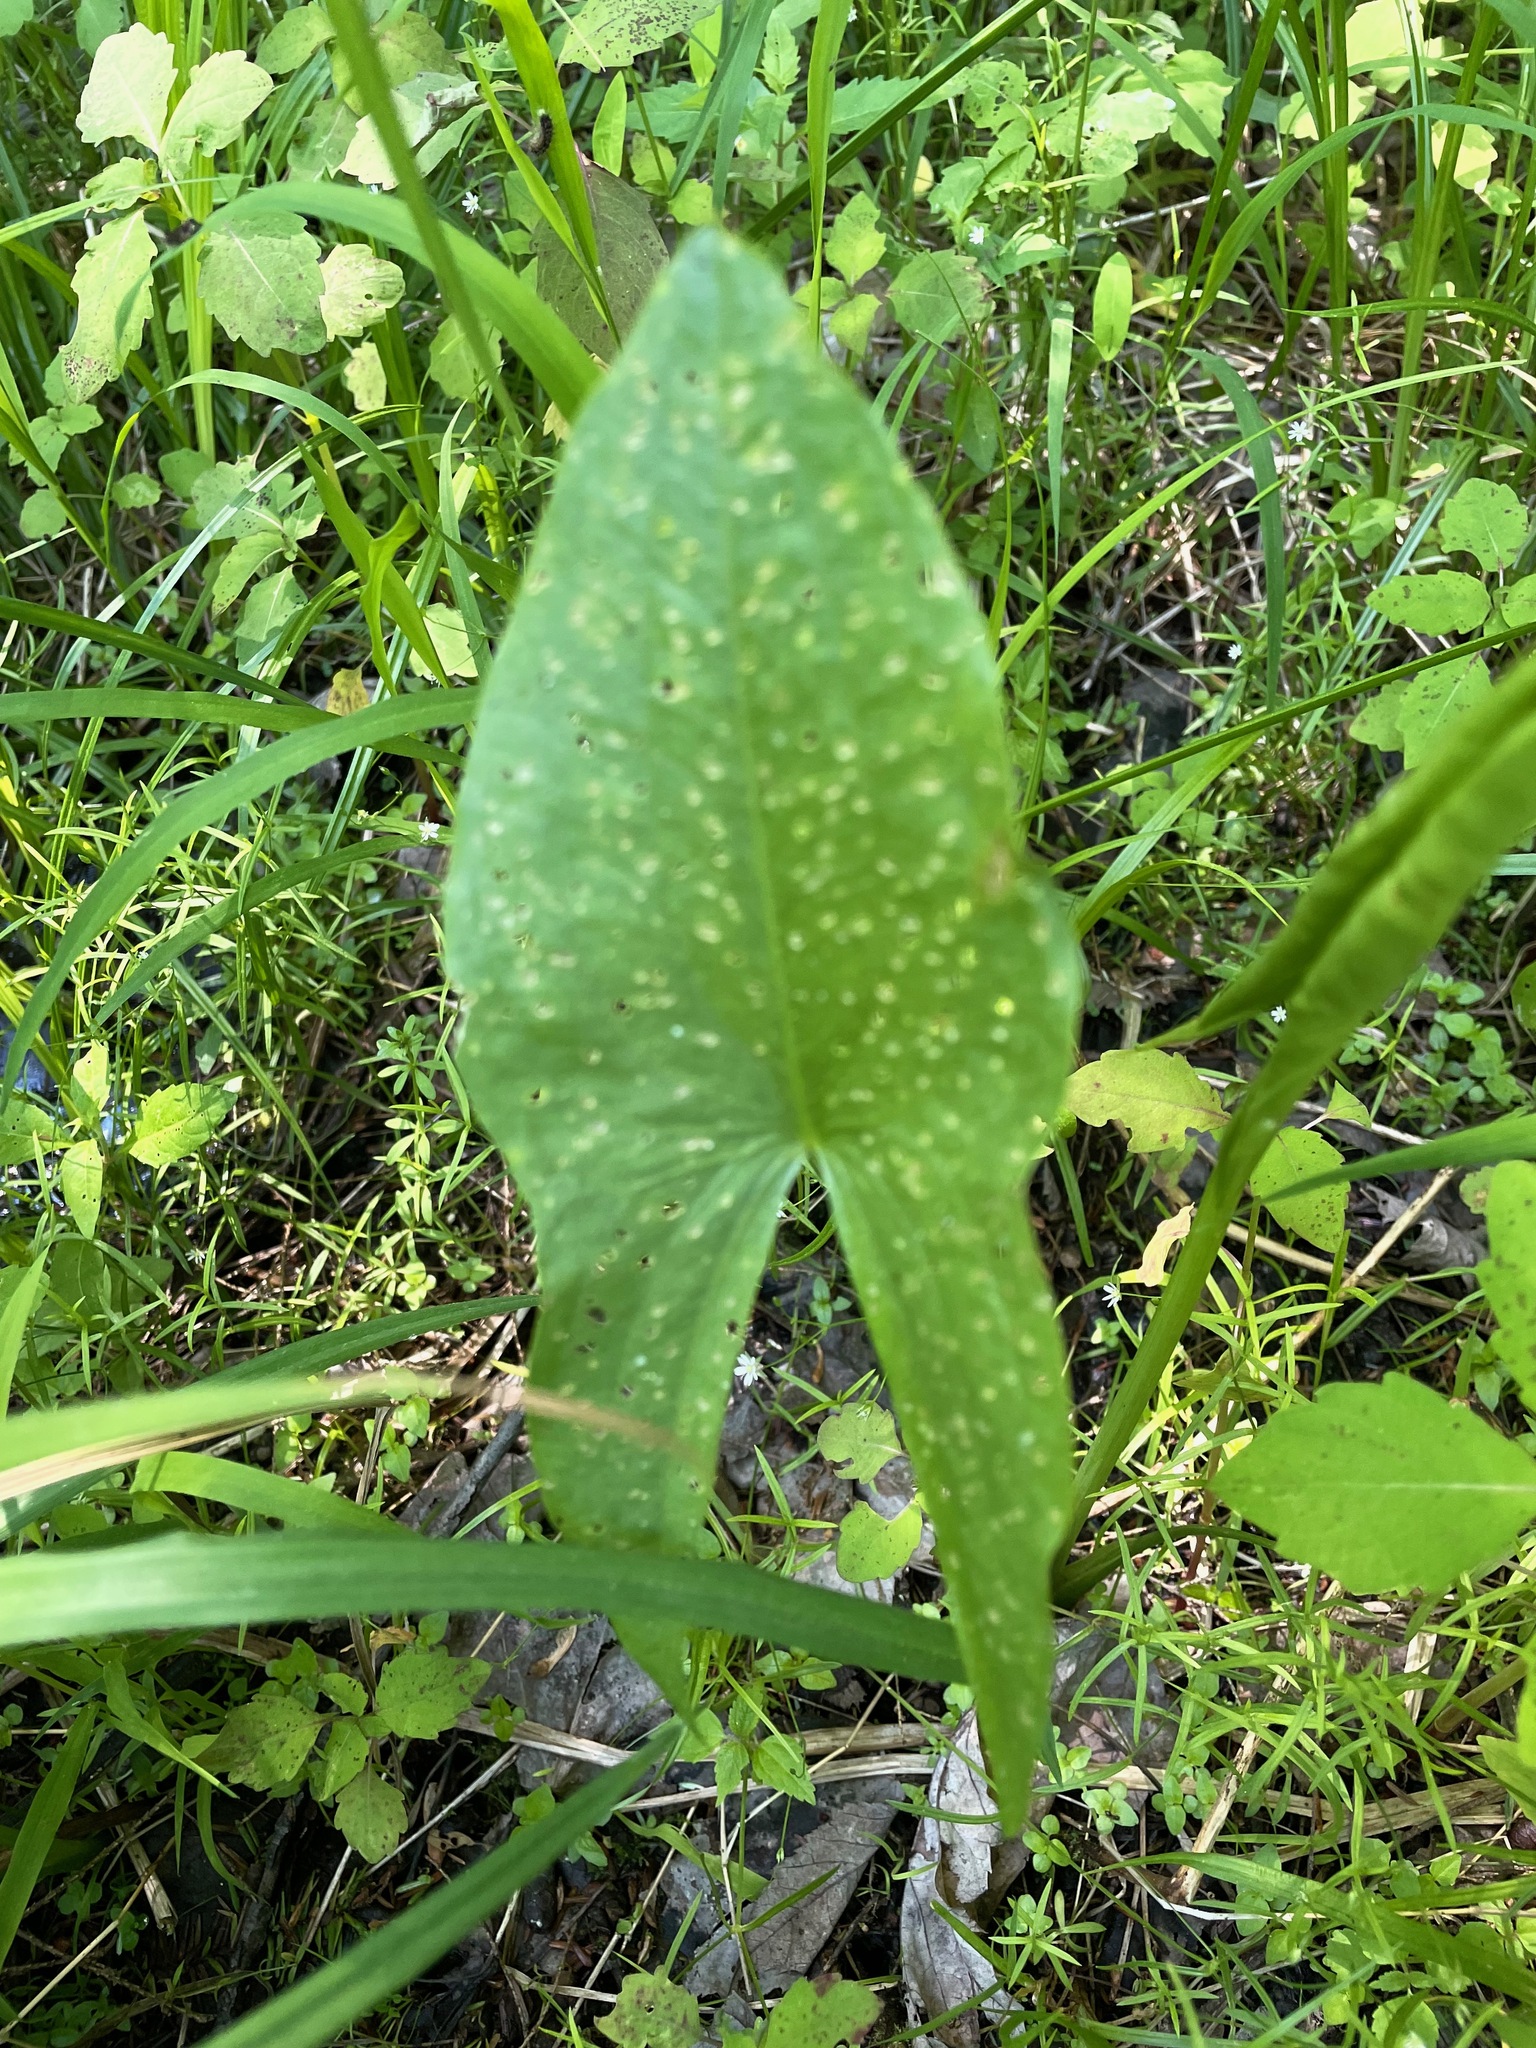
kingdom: Plantae
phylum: Tracheophyta
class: Liliopsida
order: Alismatales
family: Alismataceae
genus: Sagittaria
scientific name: Sagittaria latifolia
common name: Duck-potato
